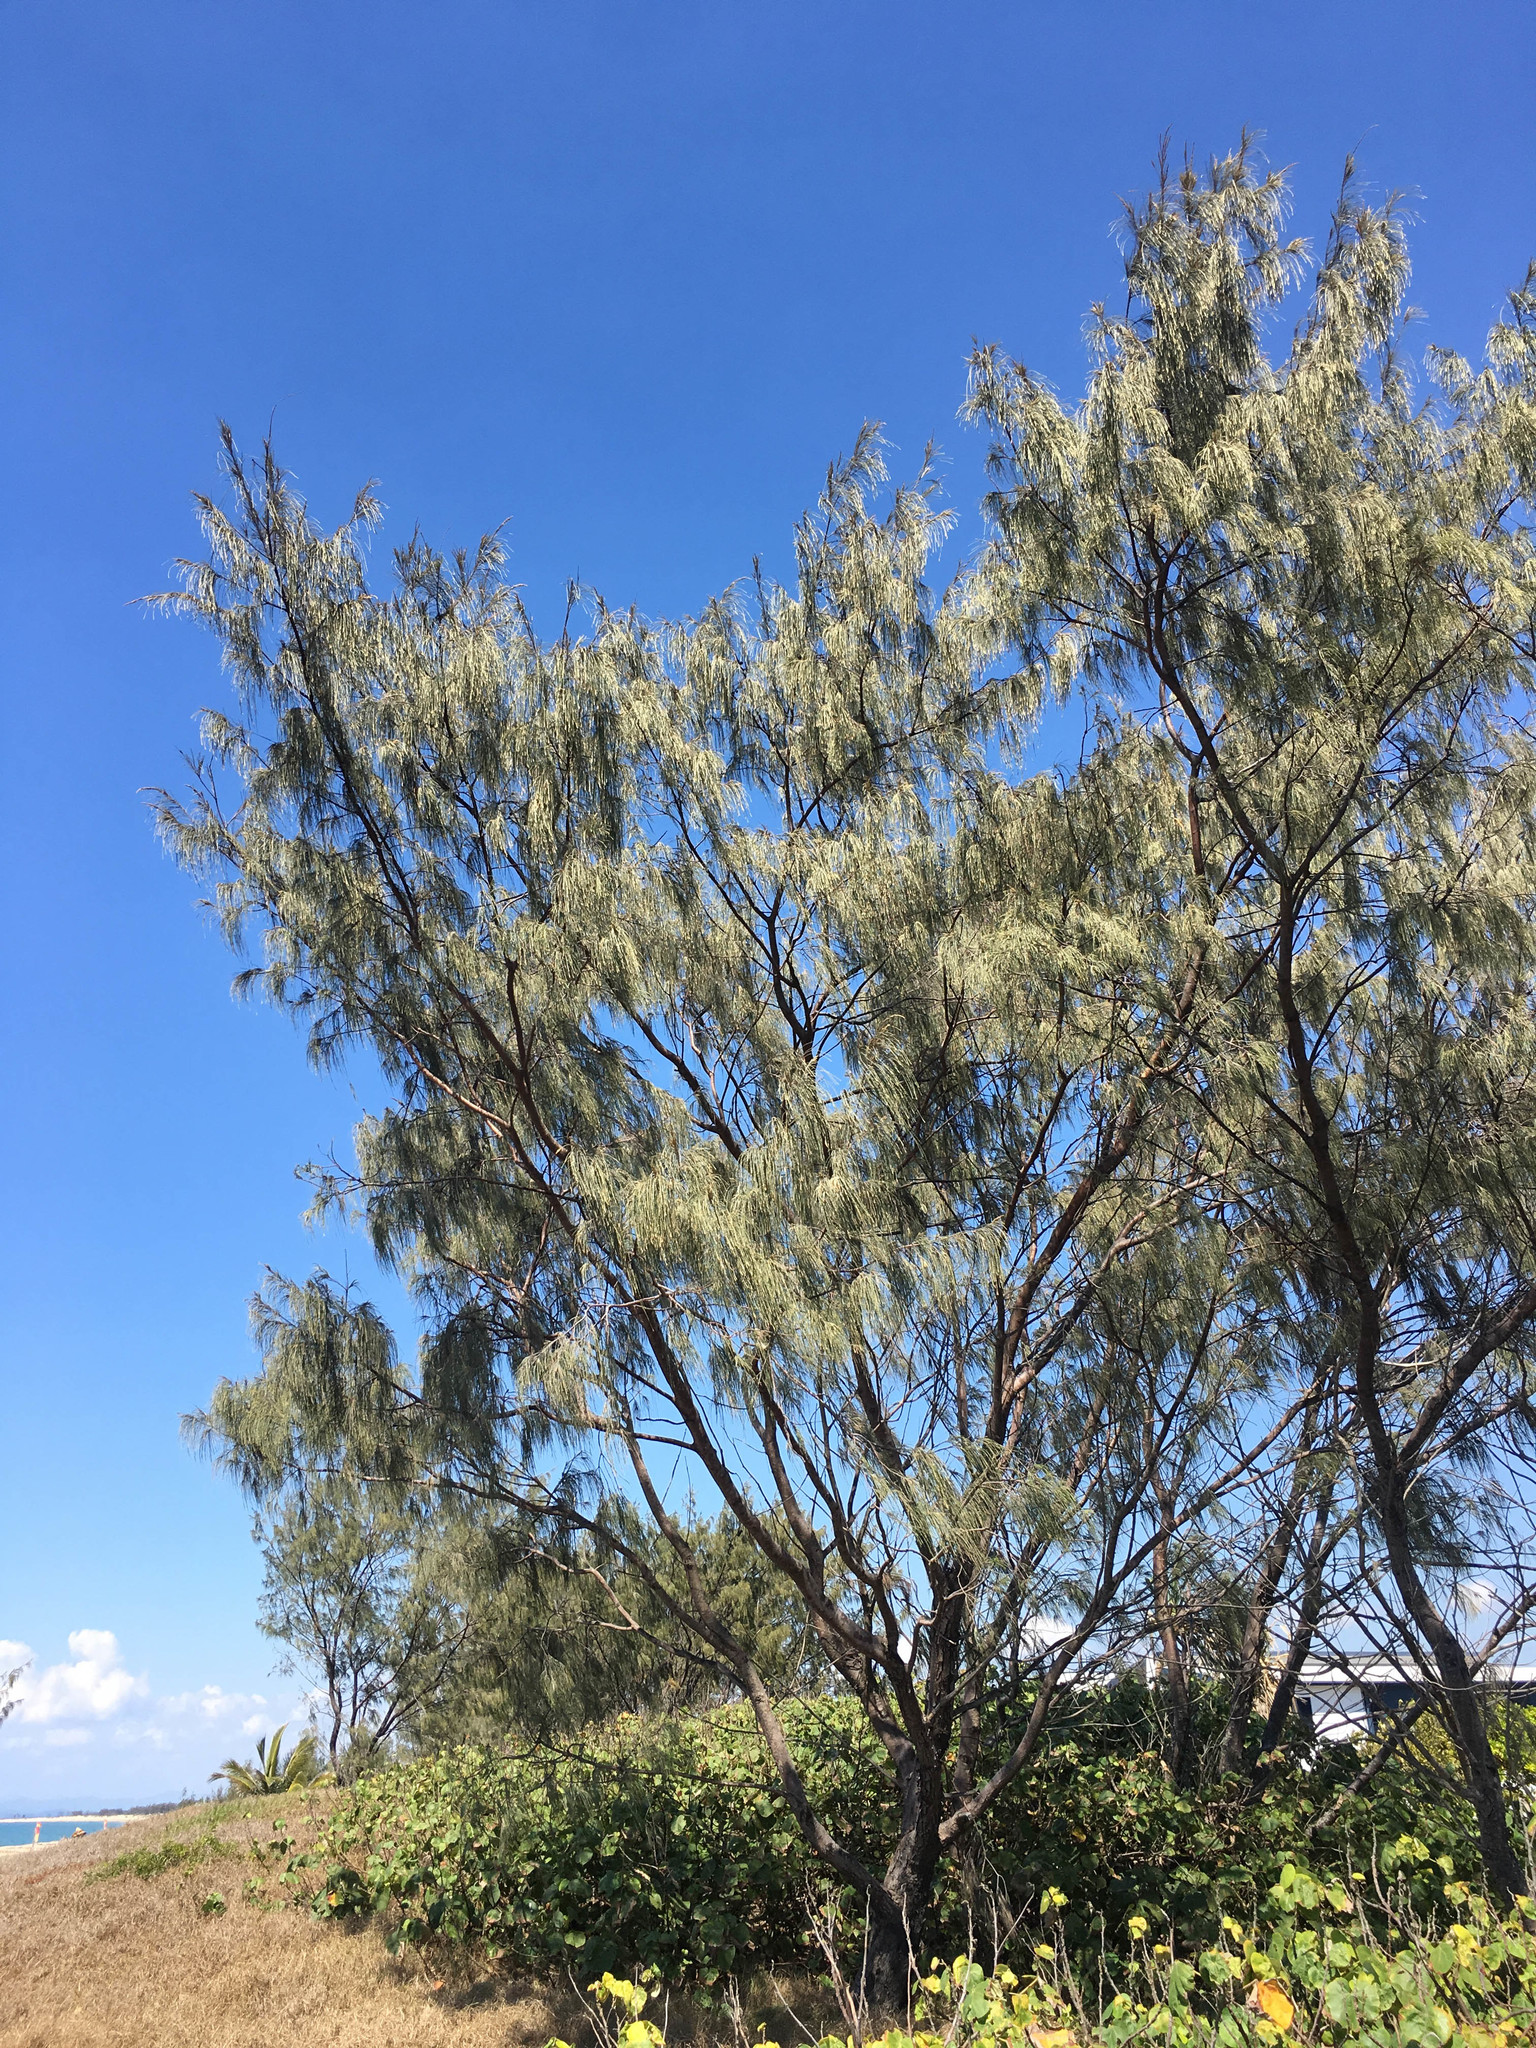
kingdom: Plantae
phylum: Tracheophyta
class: Magnoliopsida
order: Fagales
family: Casuarinaceae
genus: Casuarina
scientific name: Casuarina equisetifolia
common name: Beach sheoak
